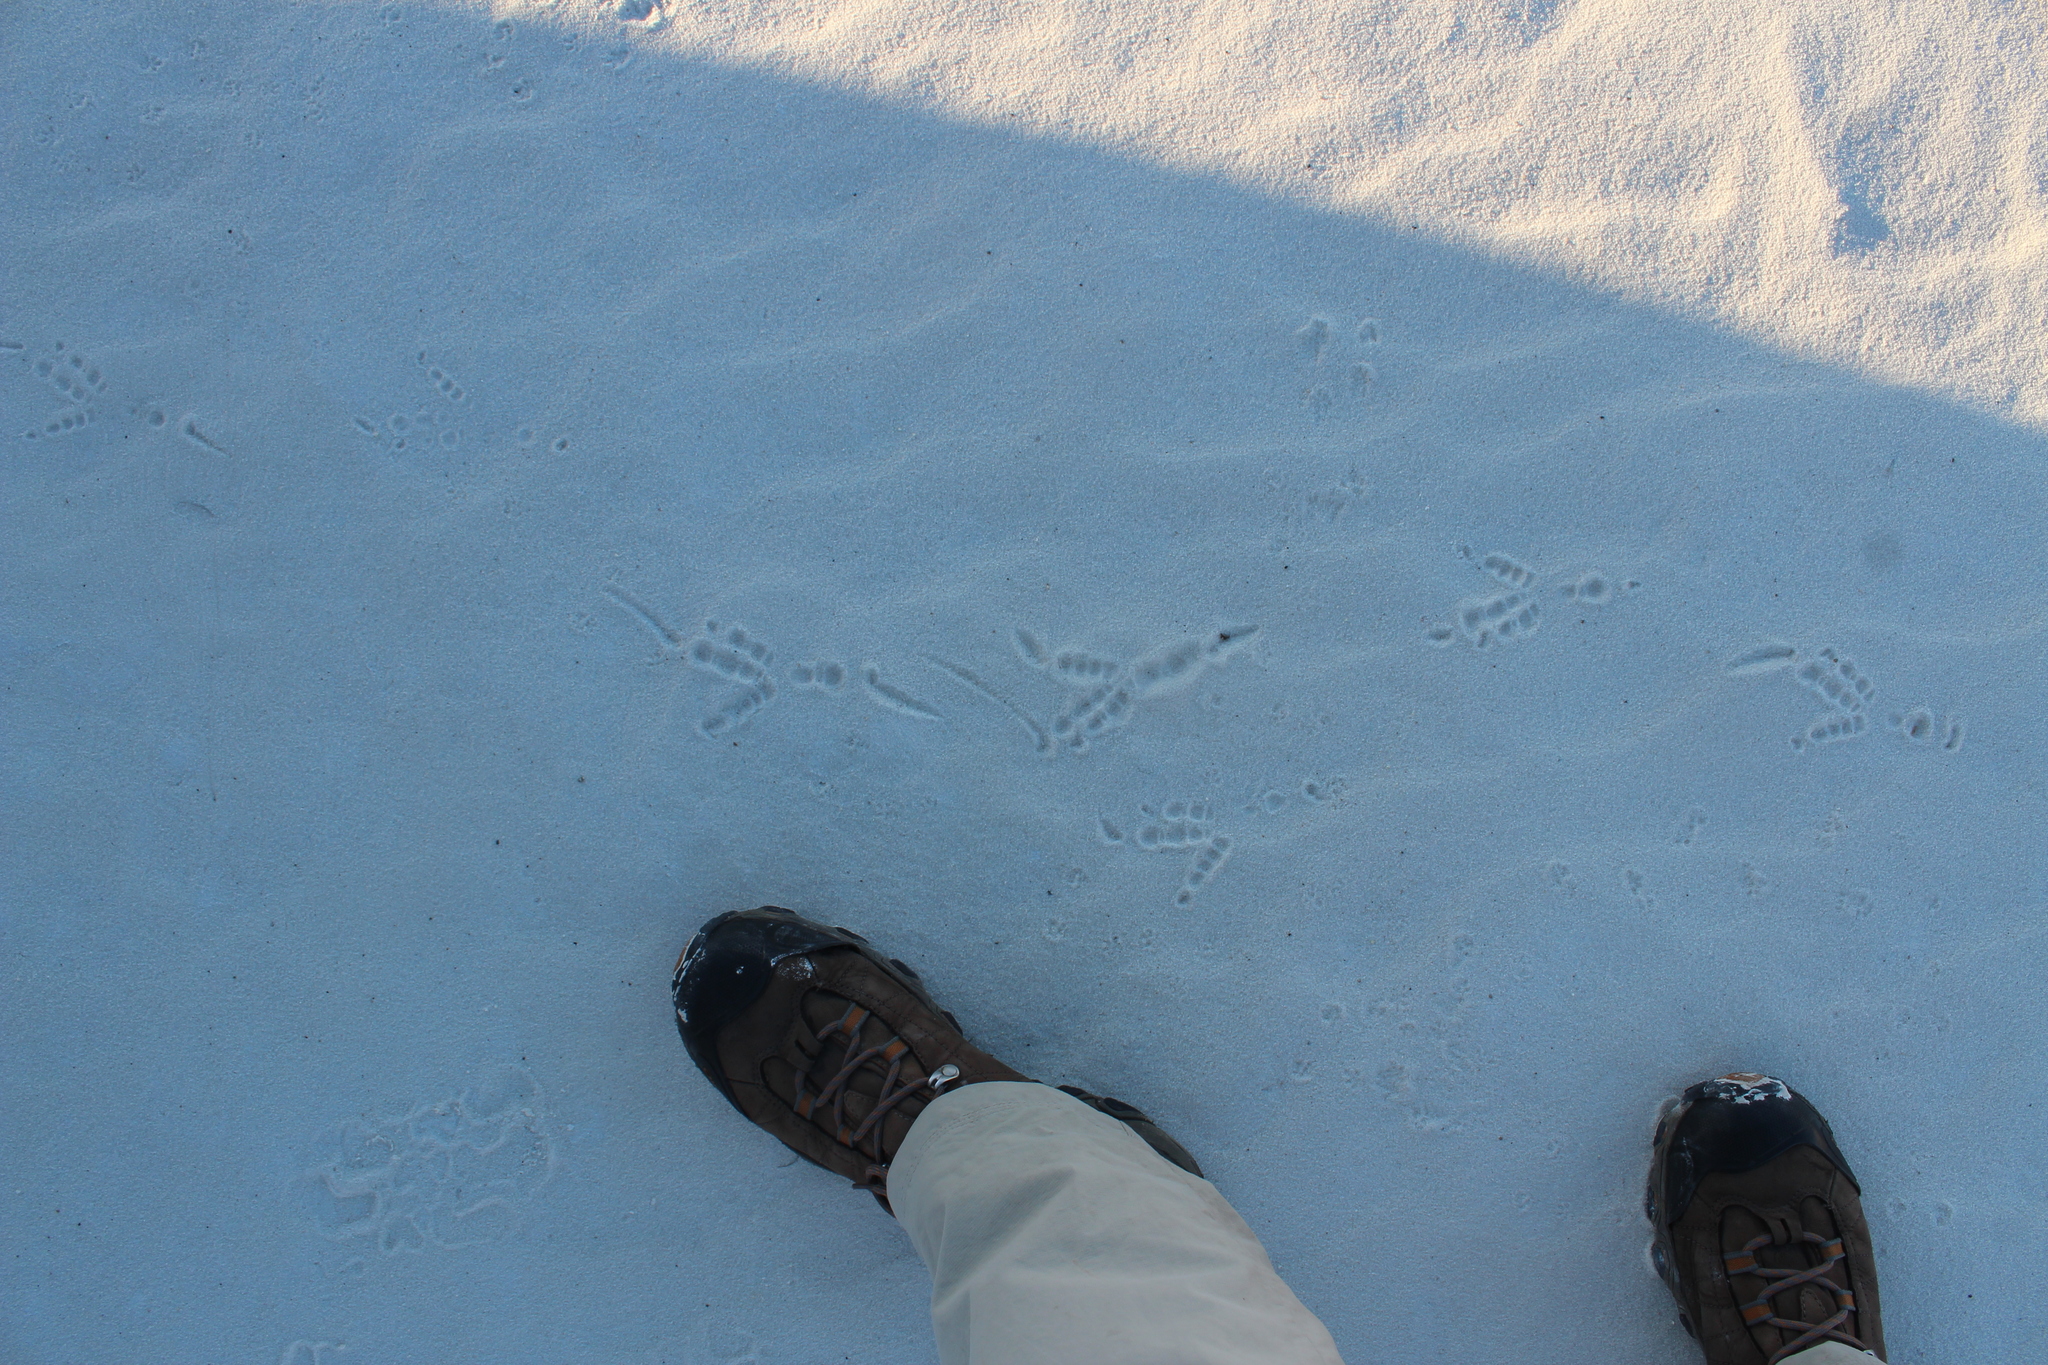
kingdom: Animalia
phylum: Chordata
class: Aves
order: Cuculiformes
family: Cuculidae
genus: Geococcyx
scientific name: Geococcyx californianus
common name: Greater roadrunner
